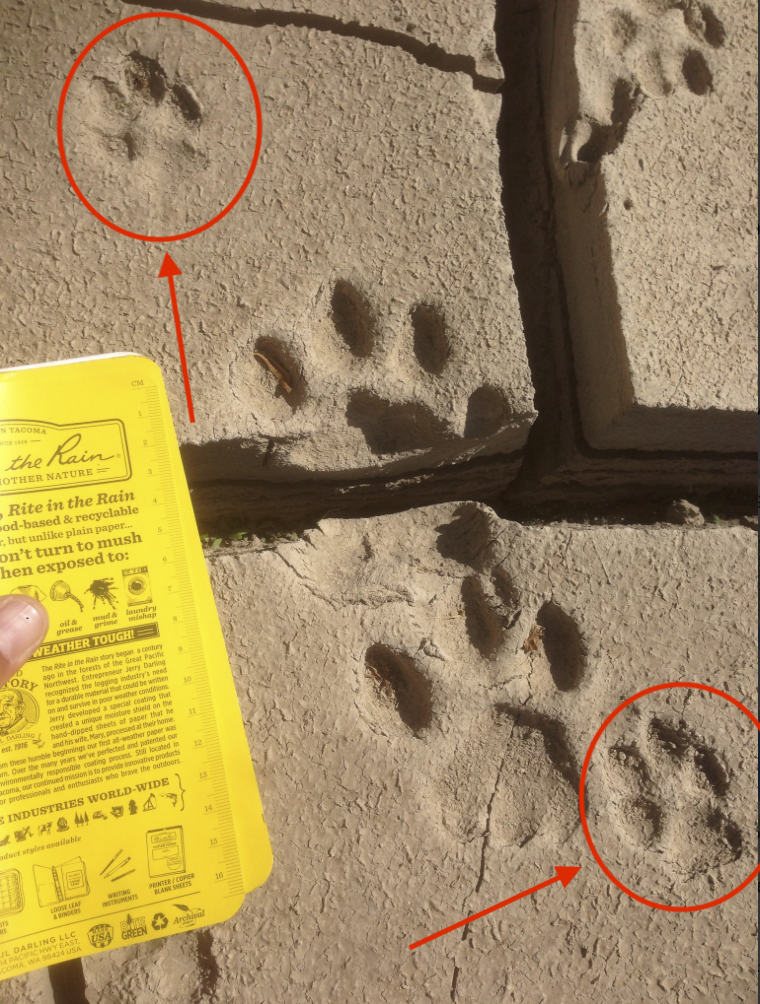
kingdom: Animalia
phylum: Chordata
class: Mammalia
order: Carnivora
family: Canidae
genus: Canis
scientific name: Canis latrans
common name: Coyote
